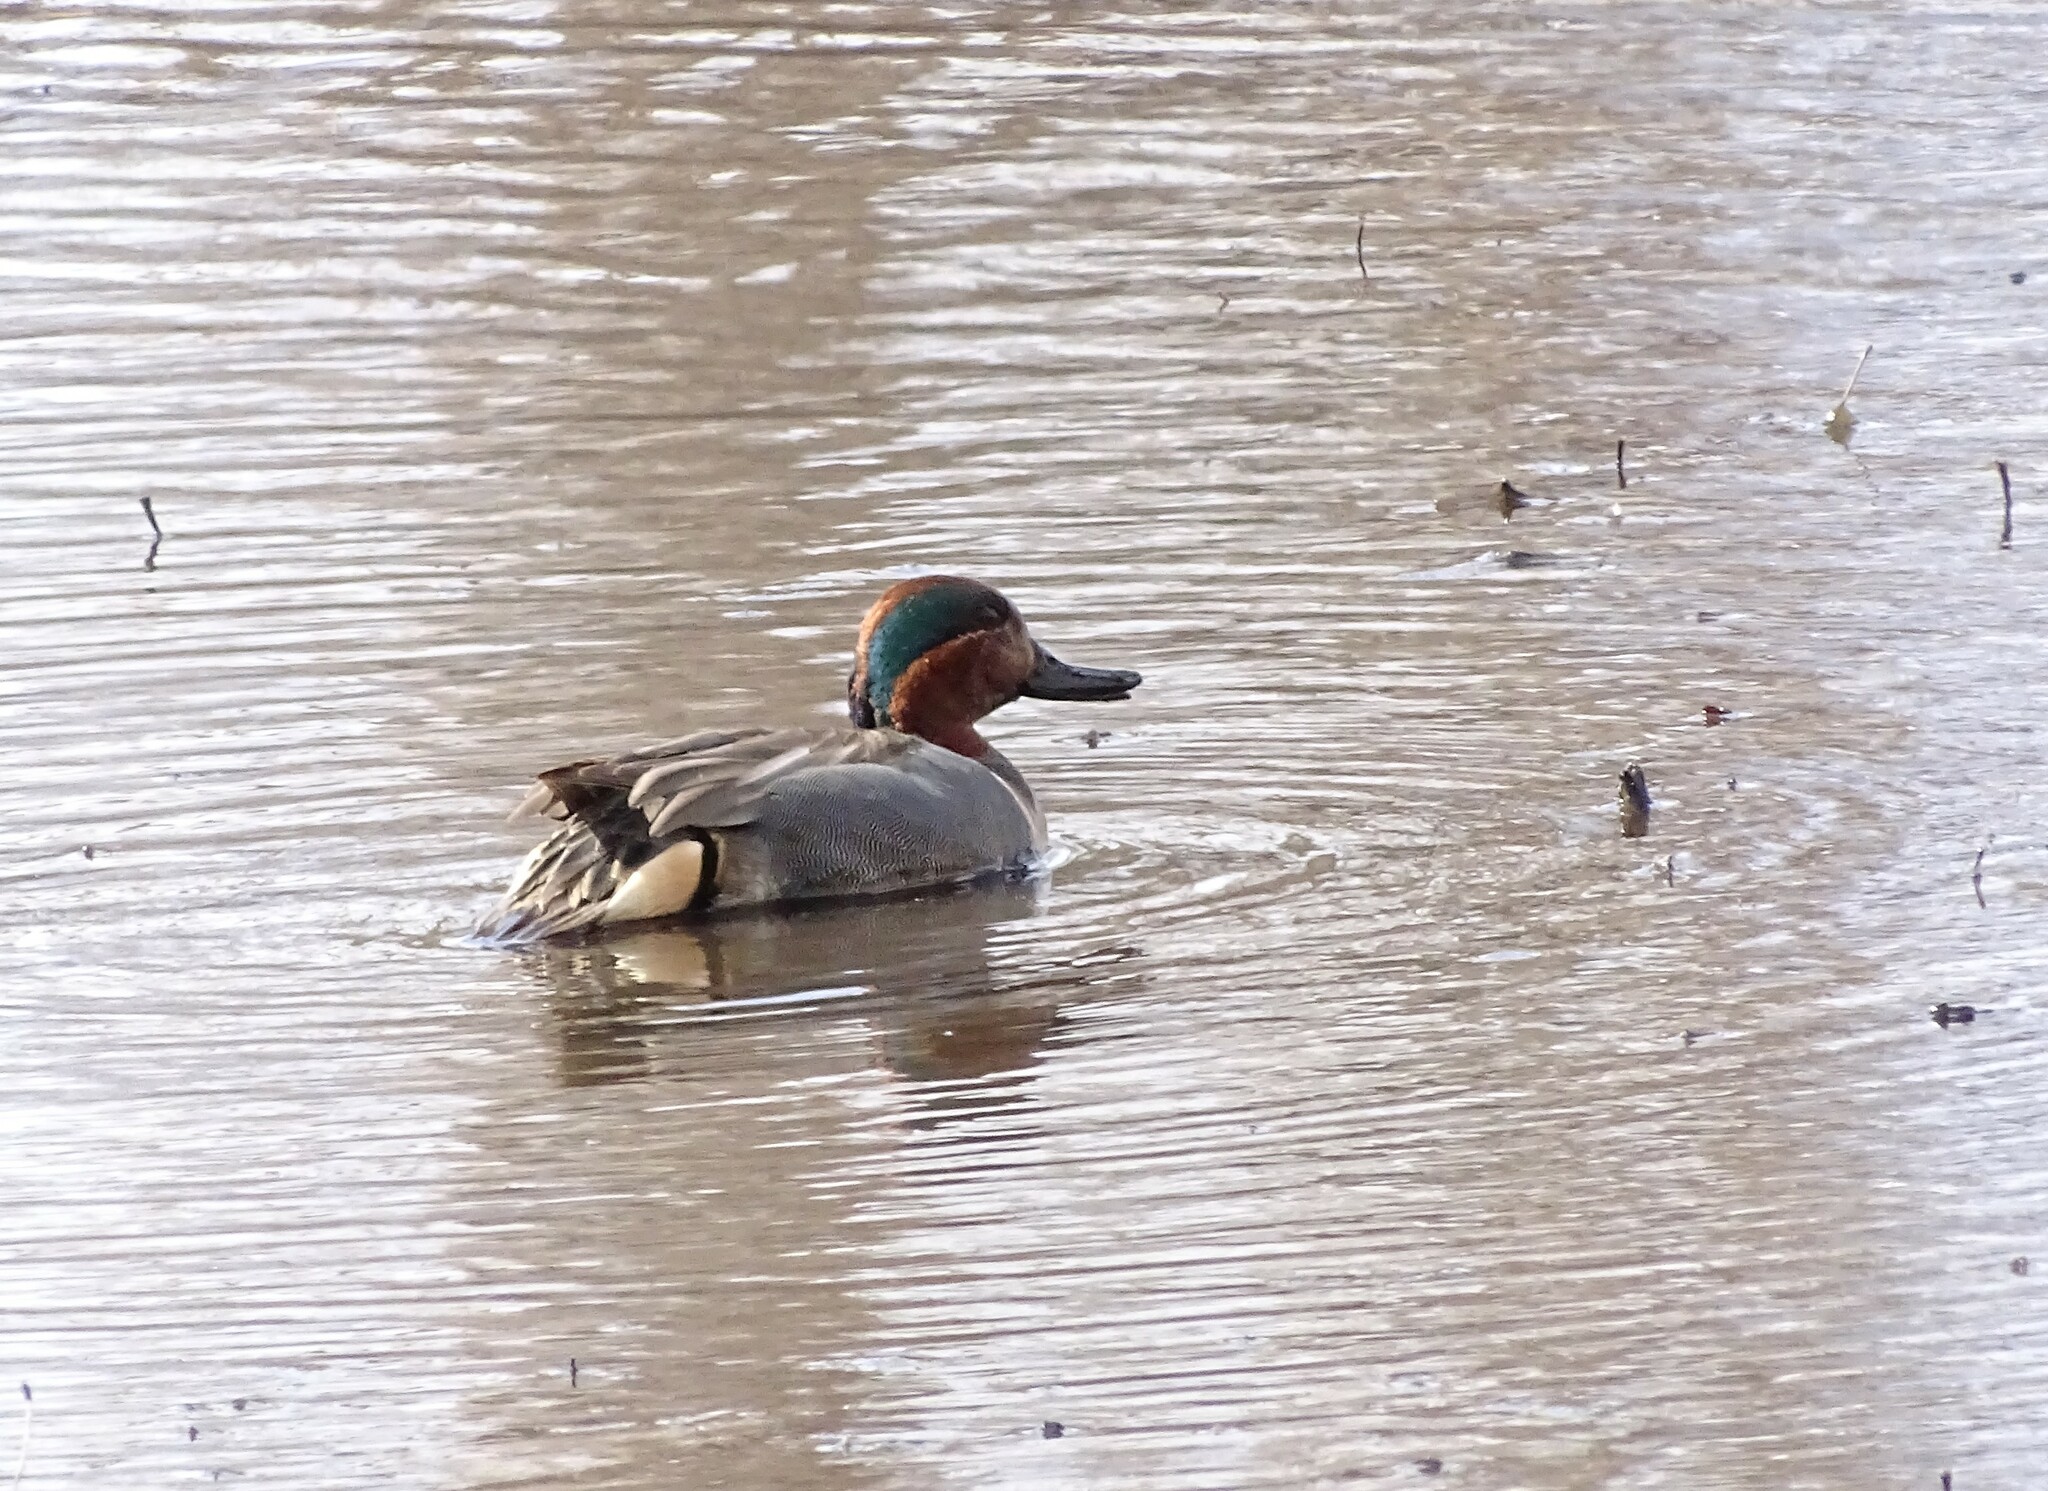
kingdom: Animalia
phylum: Chordata
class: Aves
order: Anseriformes
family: Anatidae
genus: Anas
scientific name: Anas crecca
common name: Eurasian teal
